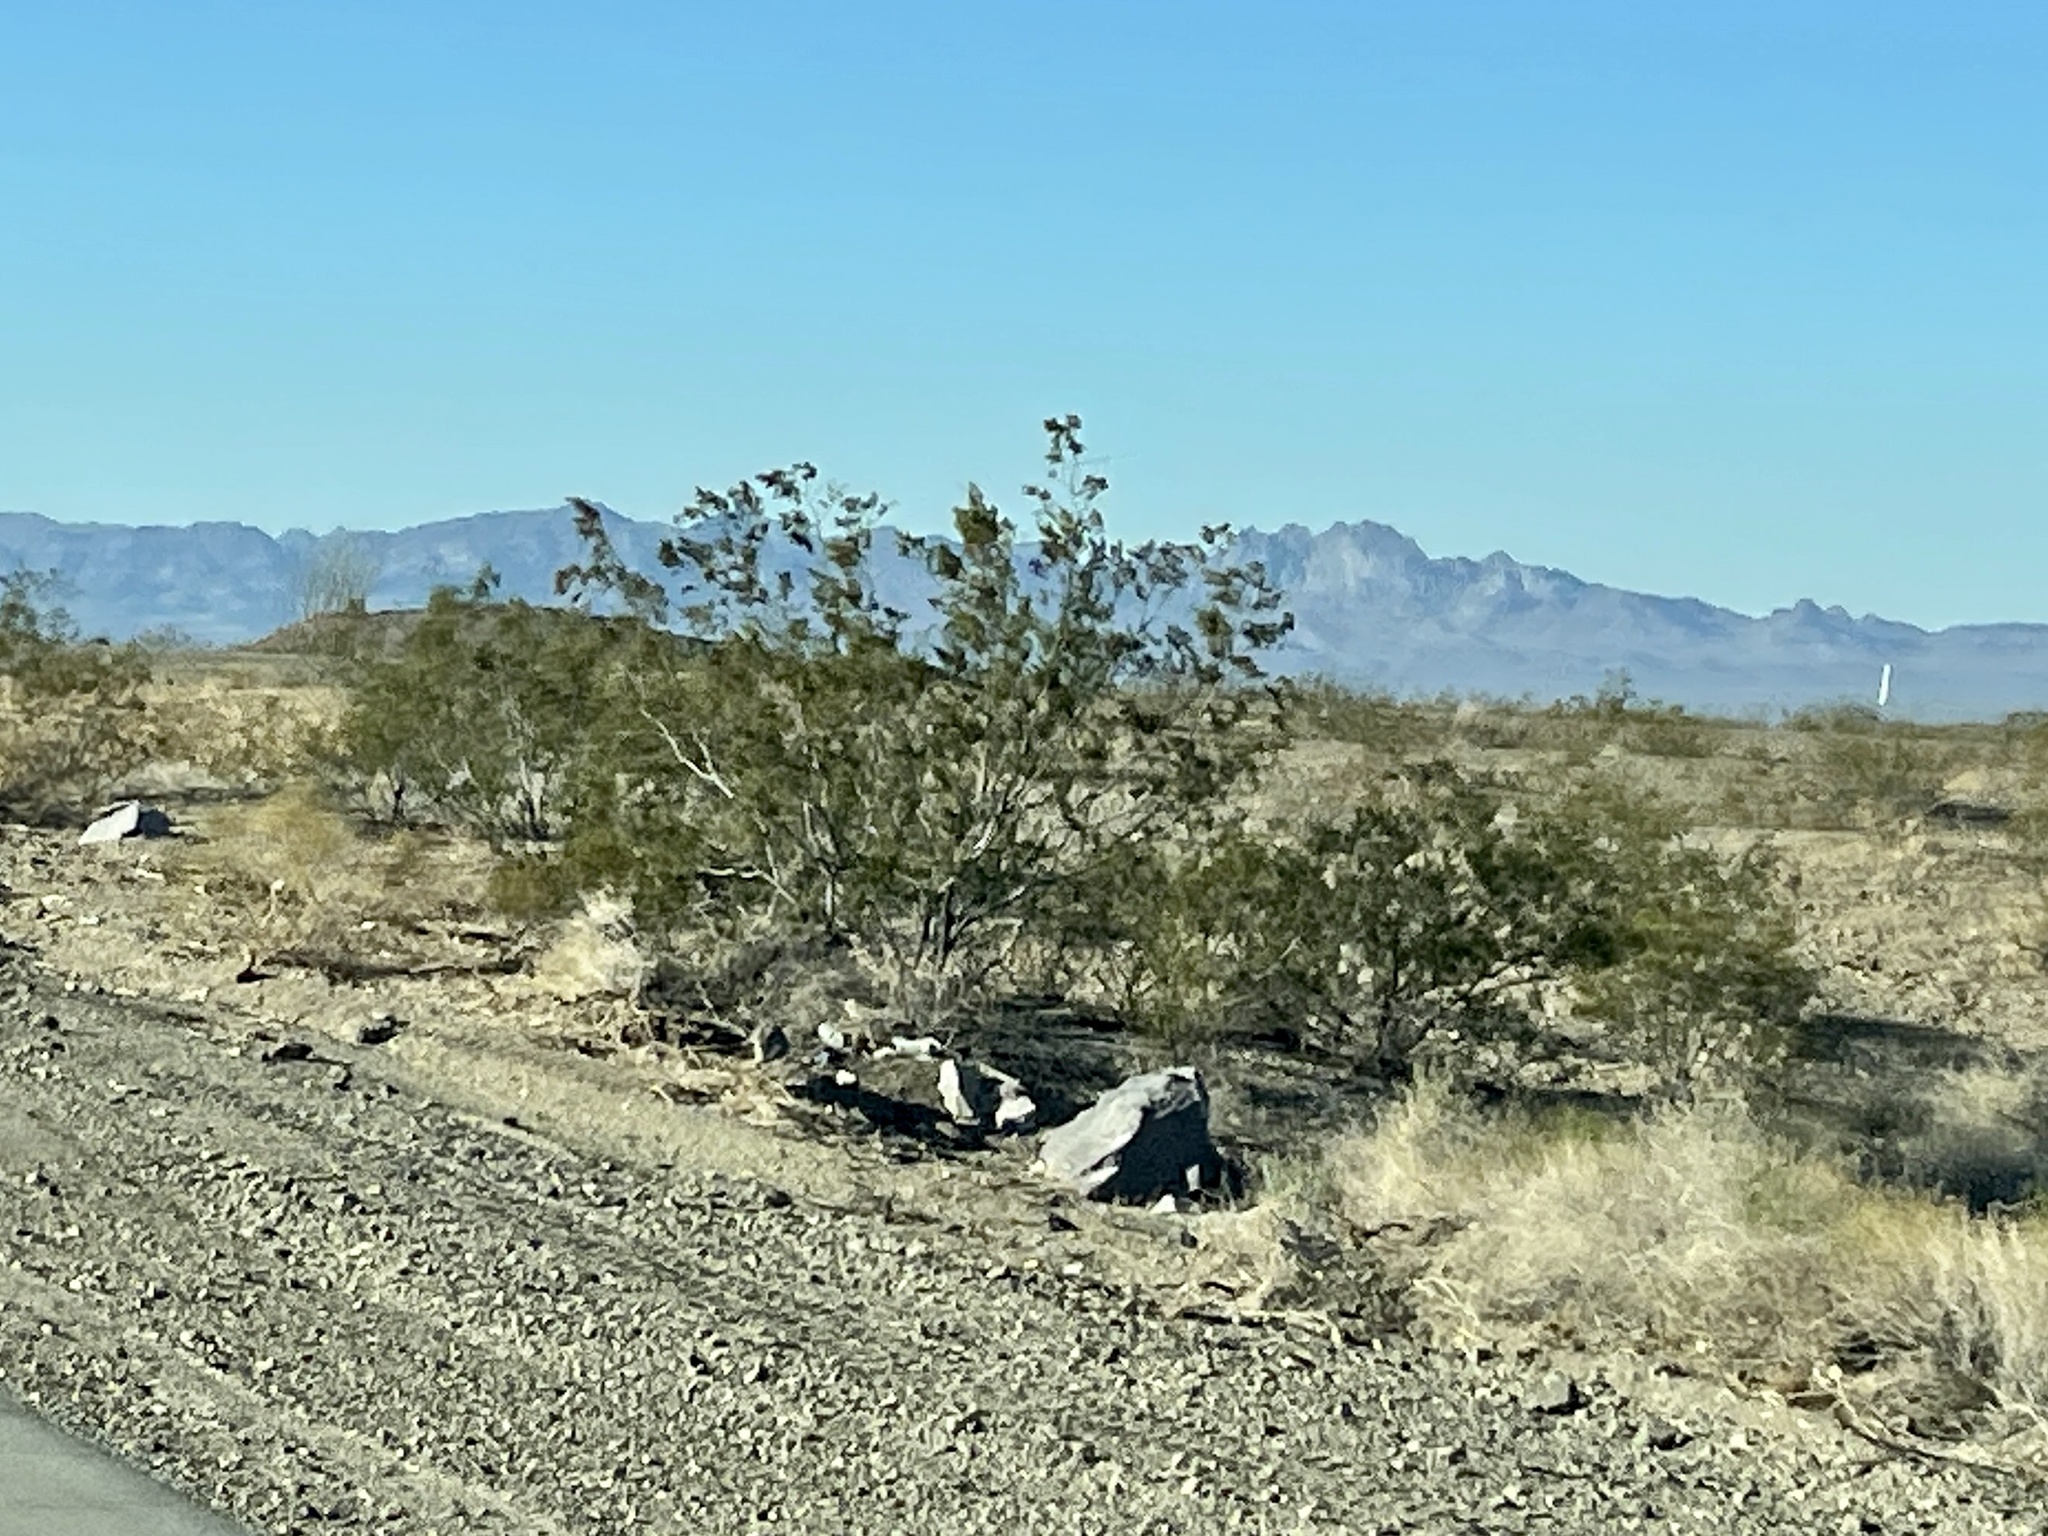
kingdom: Plantae
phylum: Tracheophyta
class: Magnoliopsida
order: Zygophyllales
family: Zygophyllaceae
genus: Larrea
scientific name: Larrea tridentata
